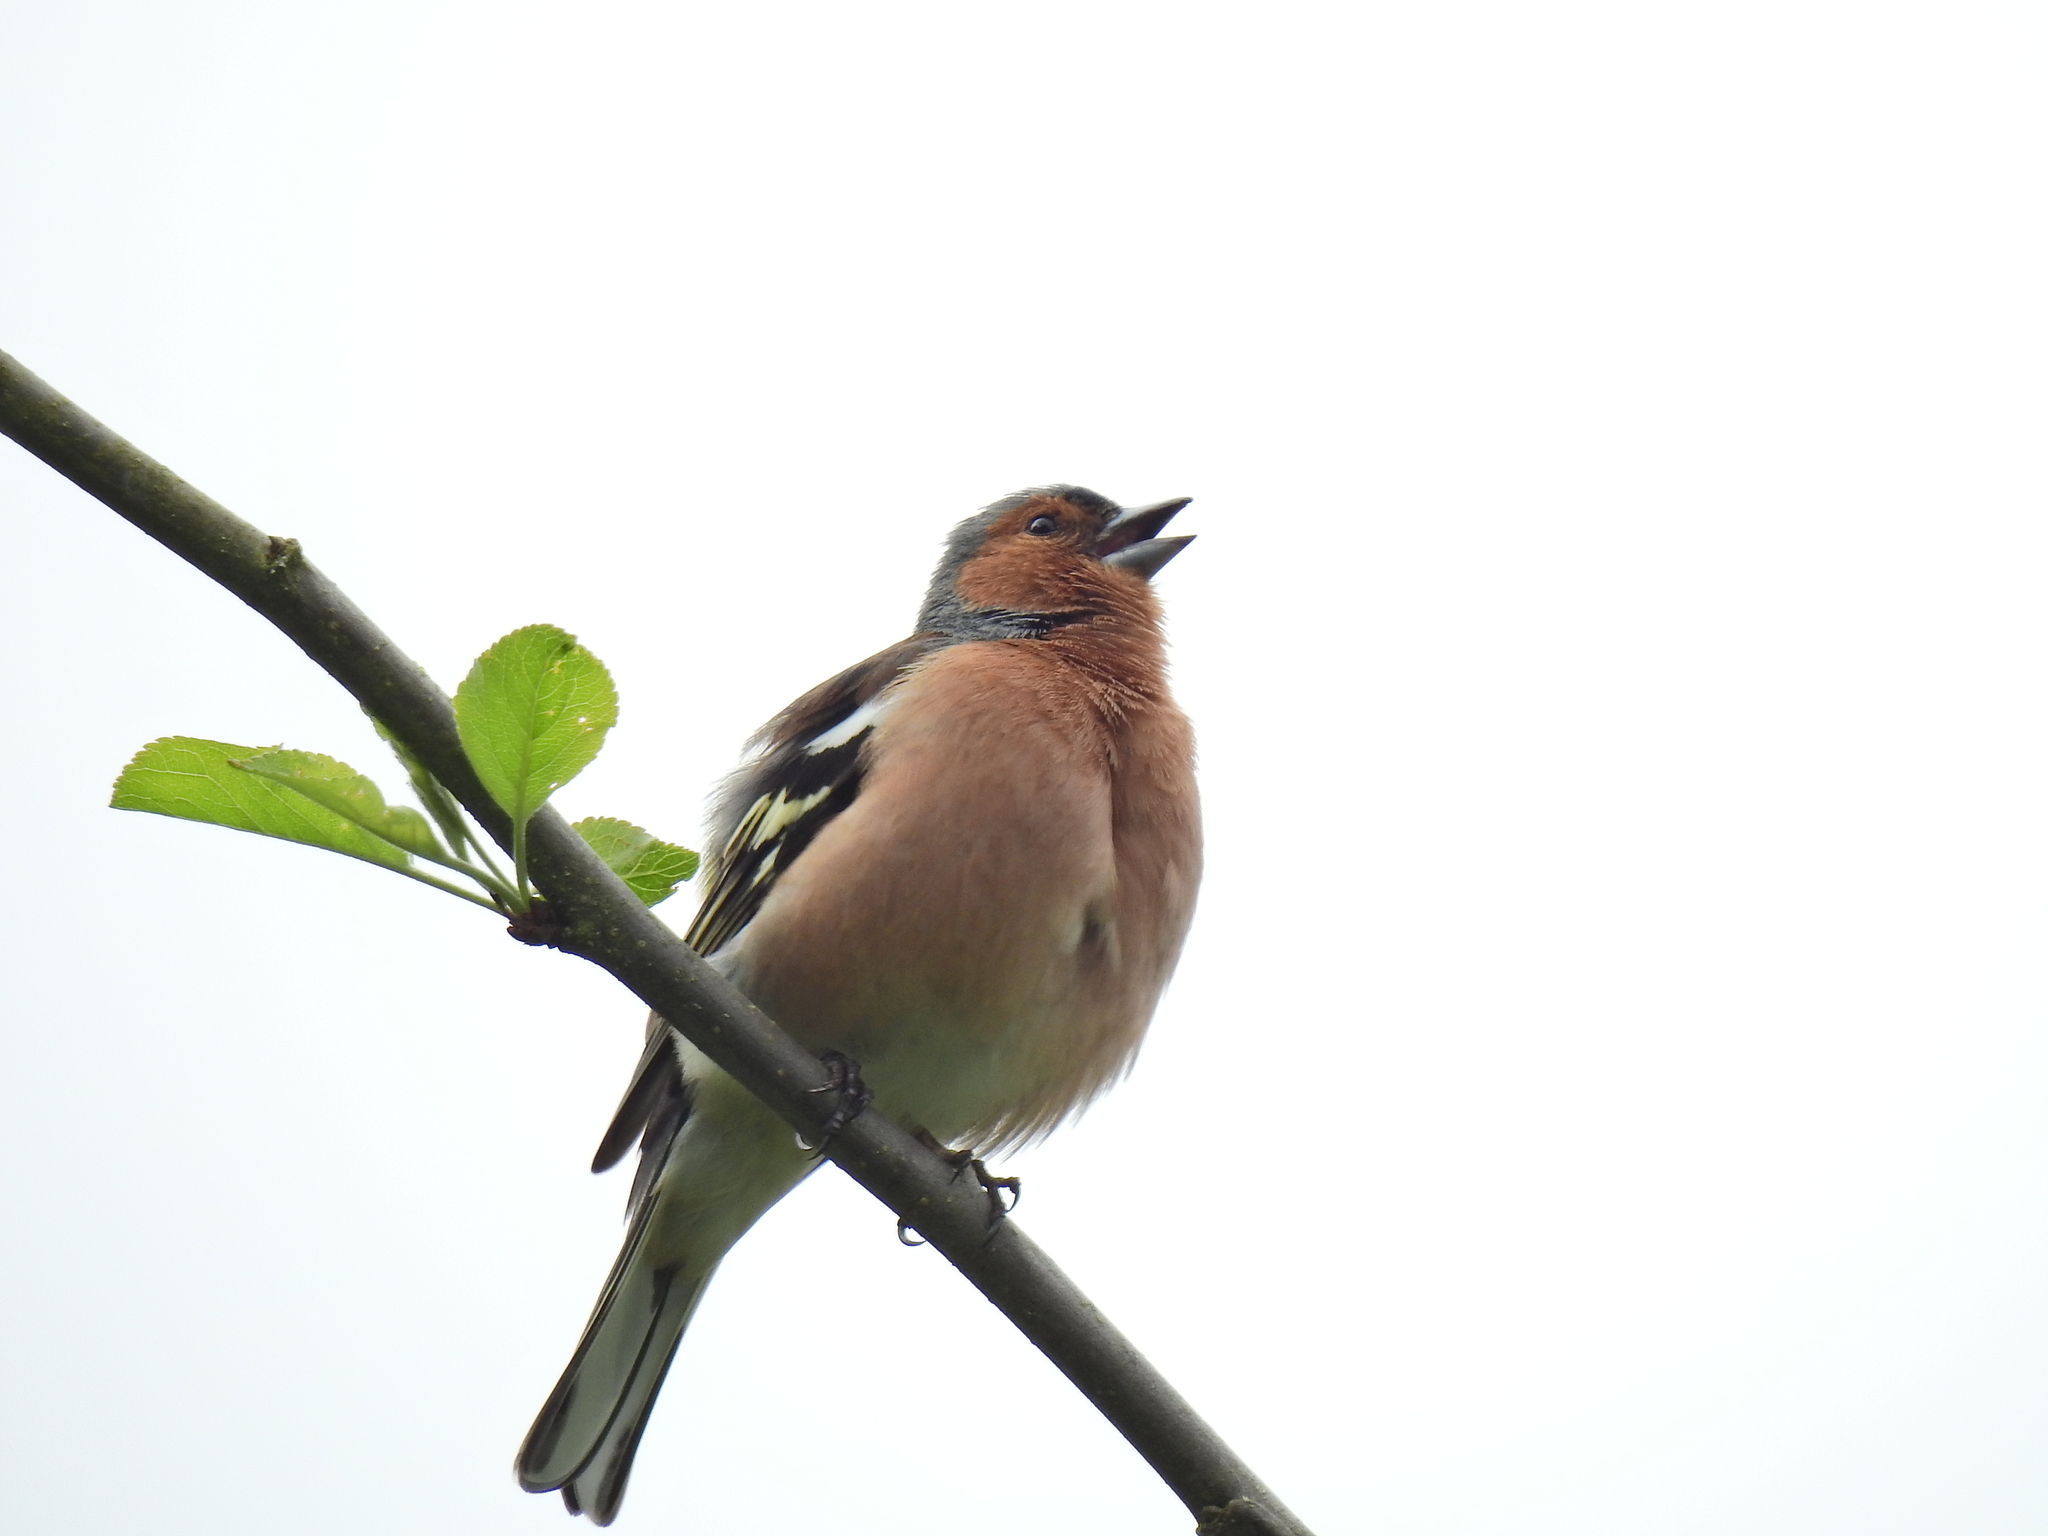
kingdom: Animalia
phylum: Chordata
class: Aves
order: Passeriformes
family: Fringillidae
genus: Fringilla
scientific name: Fringilla coelebs
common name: Common chaffinch
